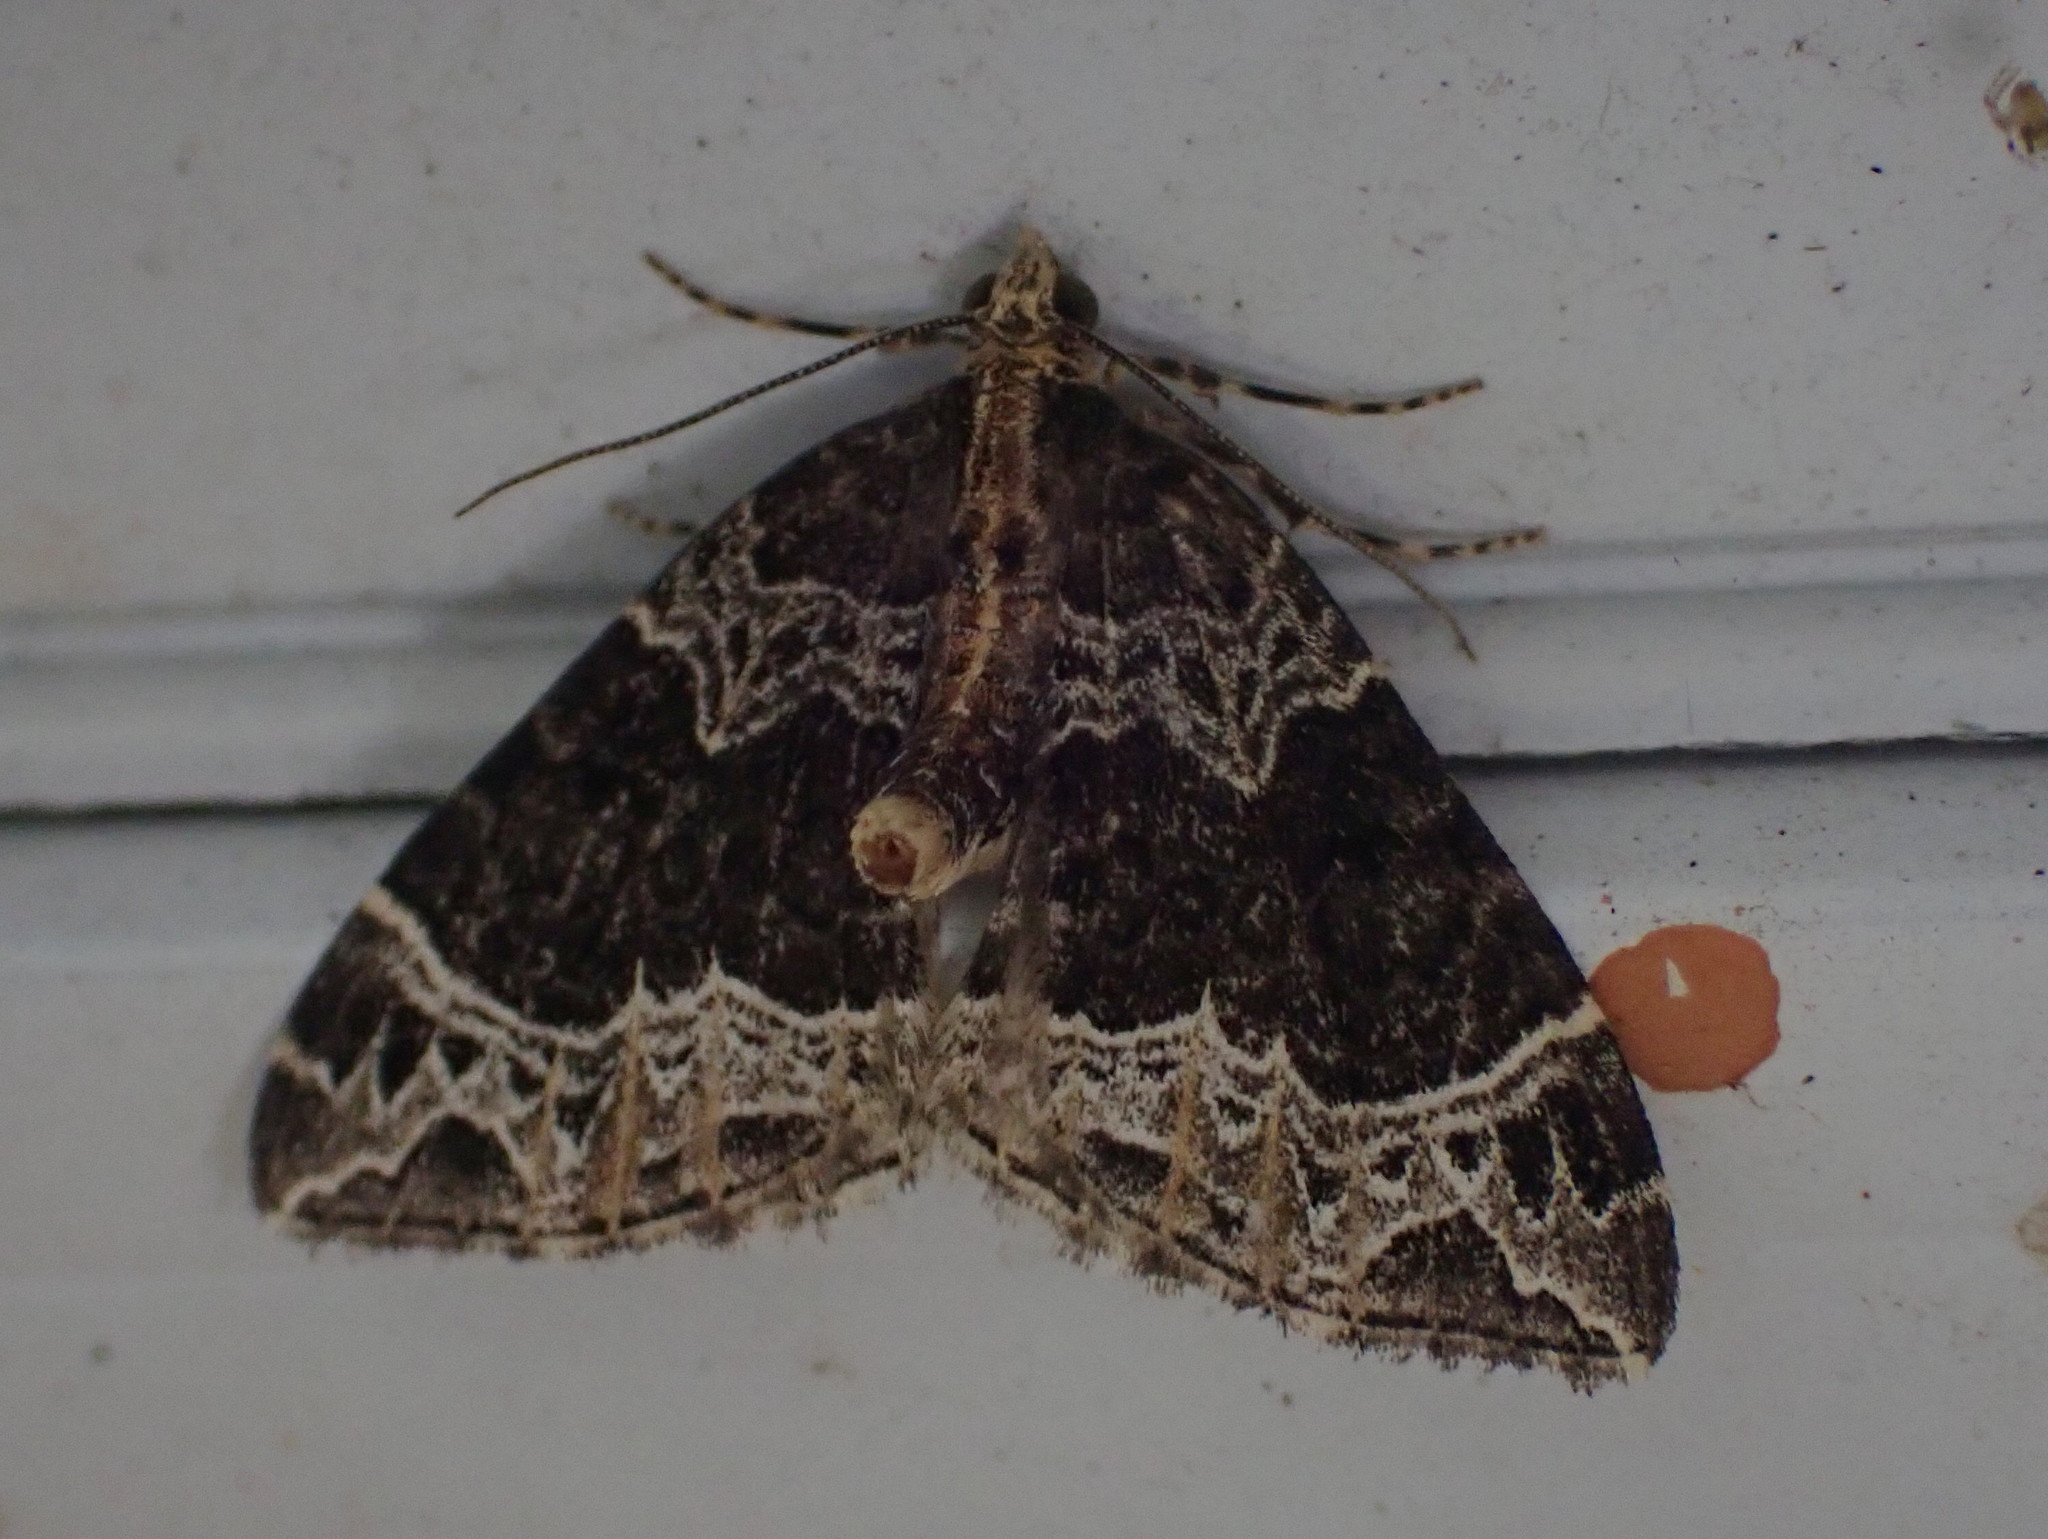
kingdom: Animalia
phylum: Arthropoda
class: Insecta
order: Lepidoptera
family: Geometridae
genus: Ecliptopera
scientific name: Ecliptopera silaceata
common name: Small phoenix
